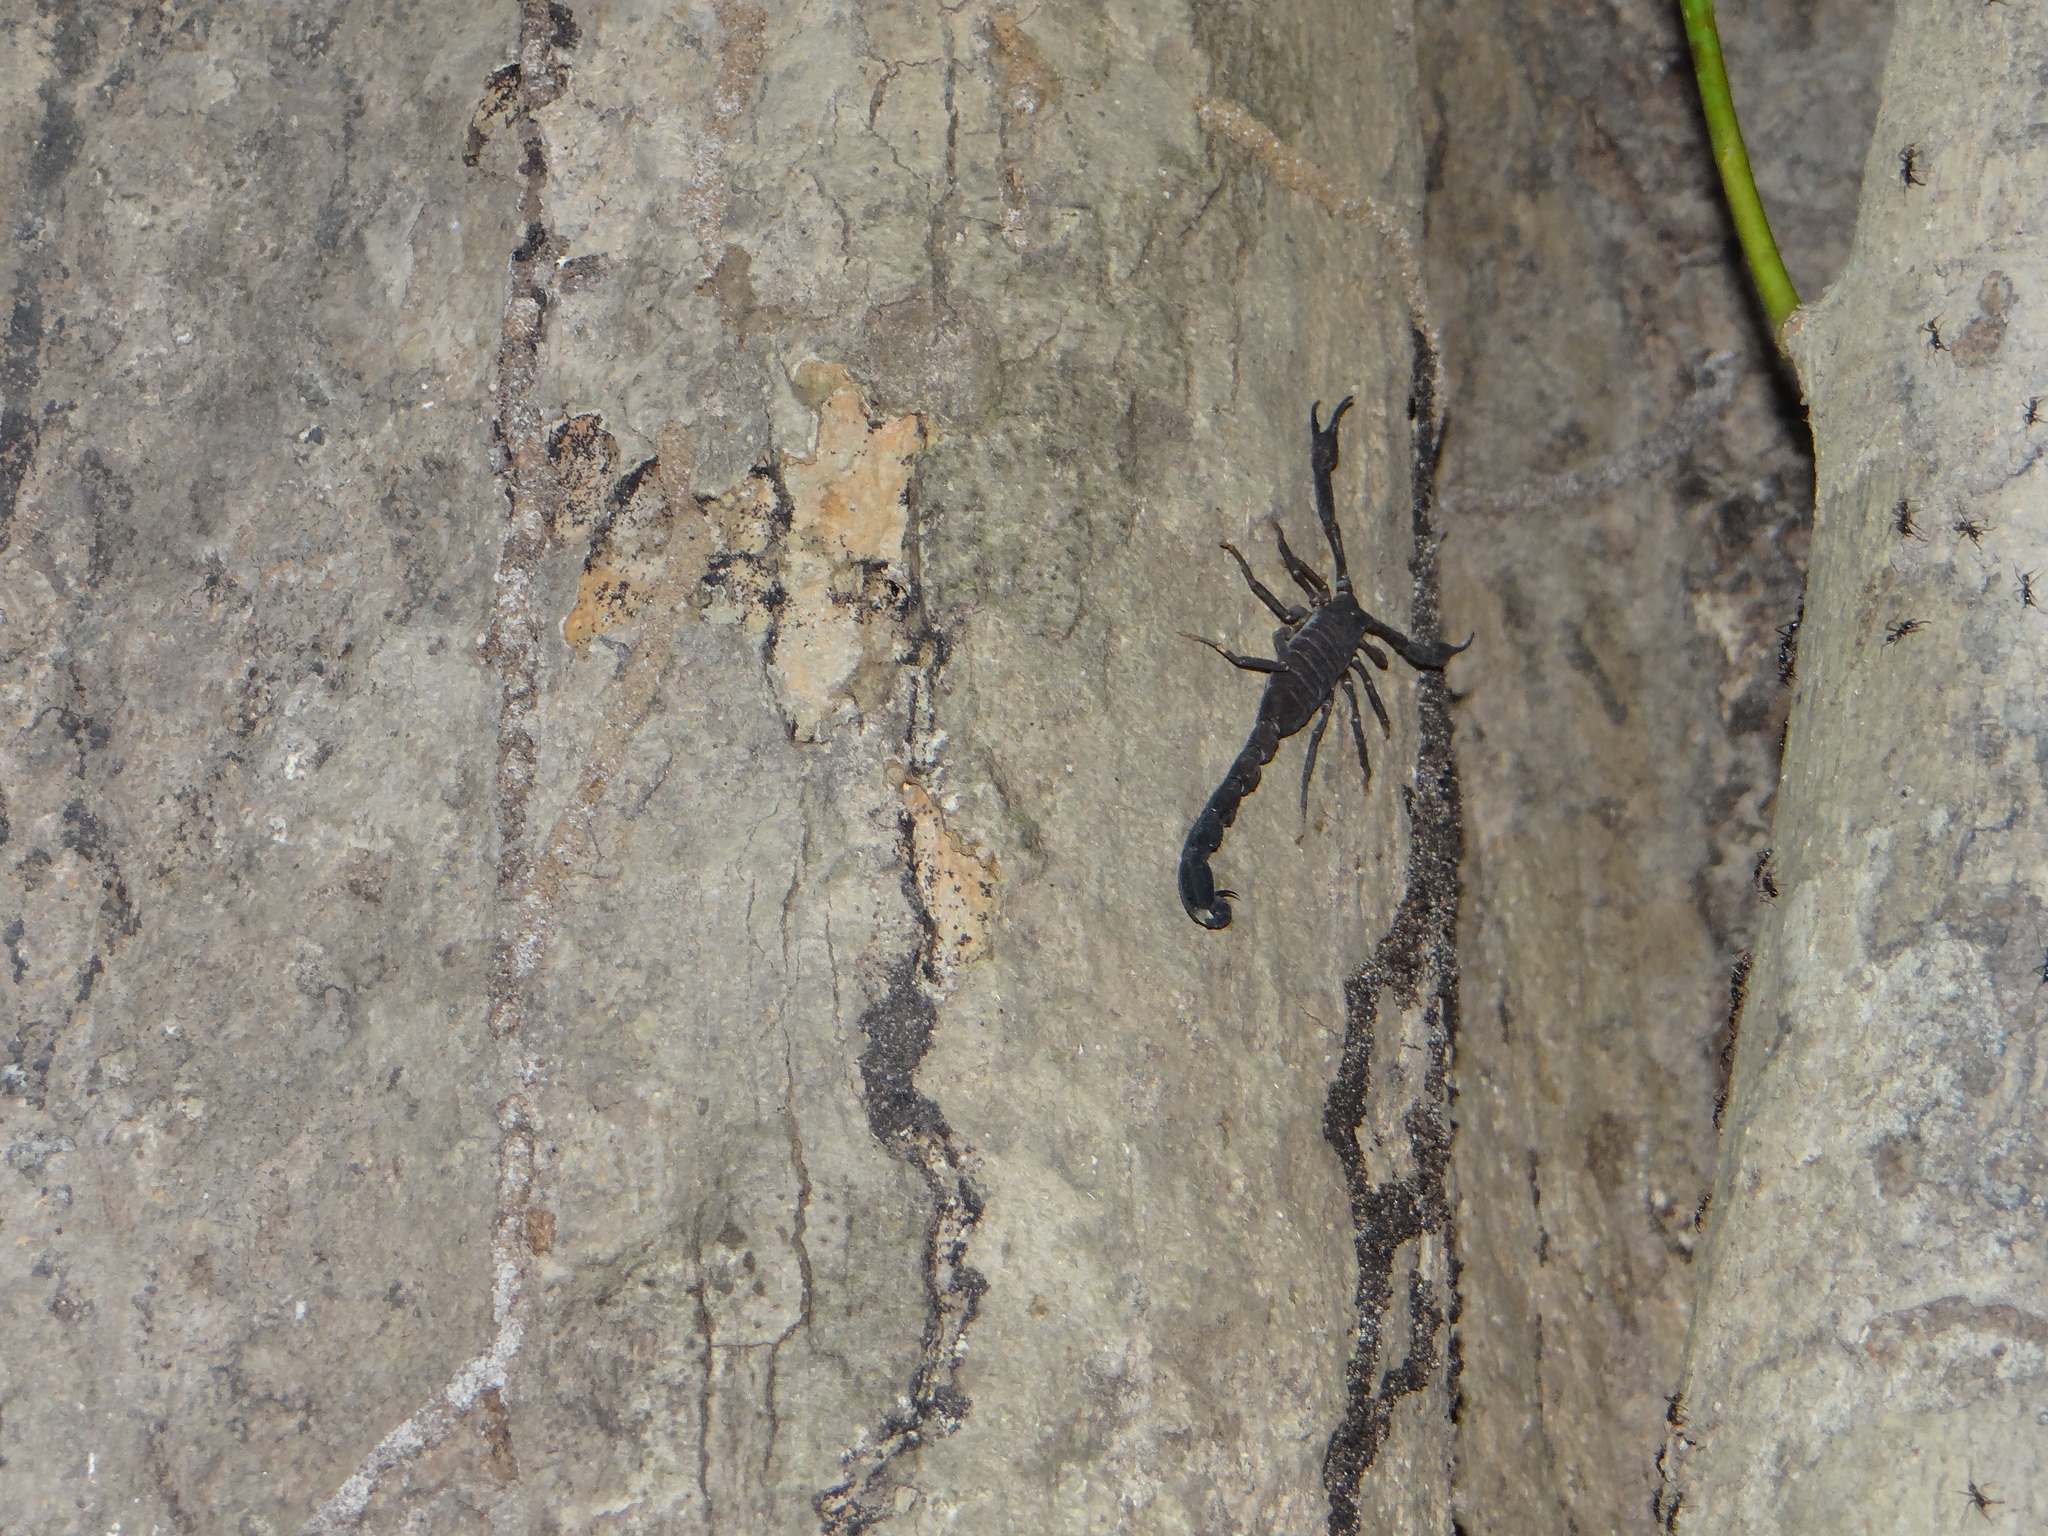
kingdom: Animalia
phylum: Arthropoda
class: Arachnida
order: Scorpiones
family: Buthidae
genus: Tityus
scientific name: Tityus metuendus
